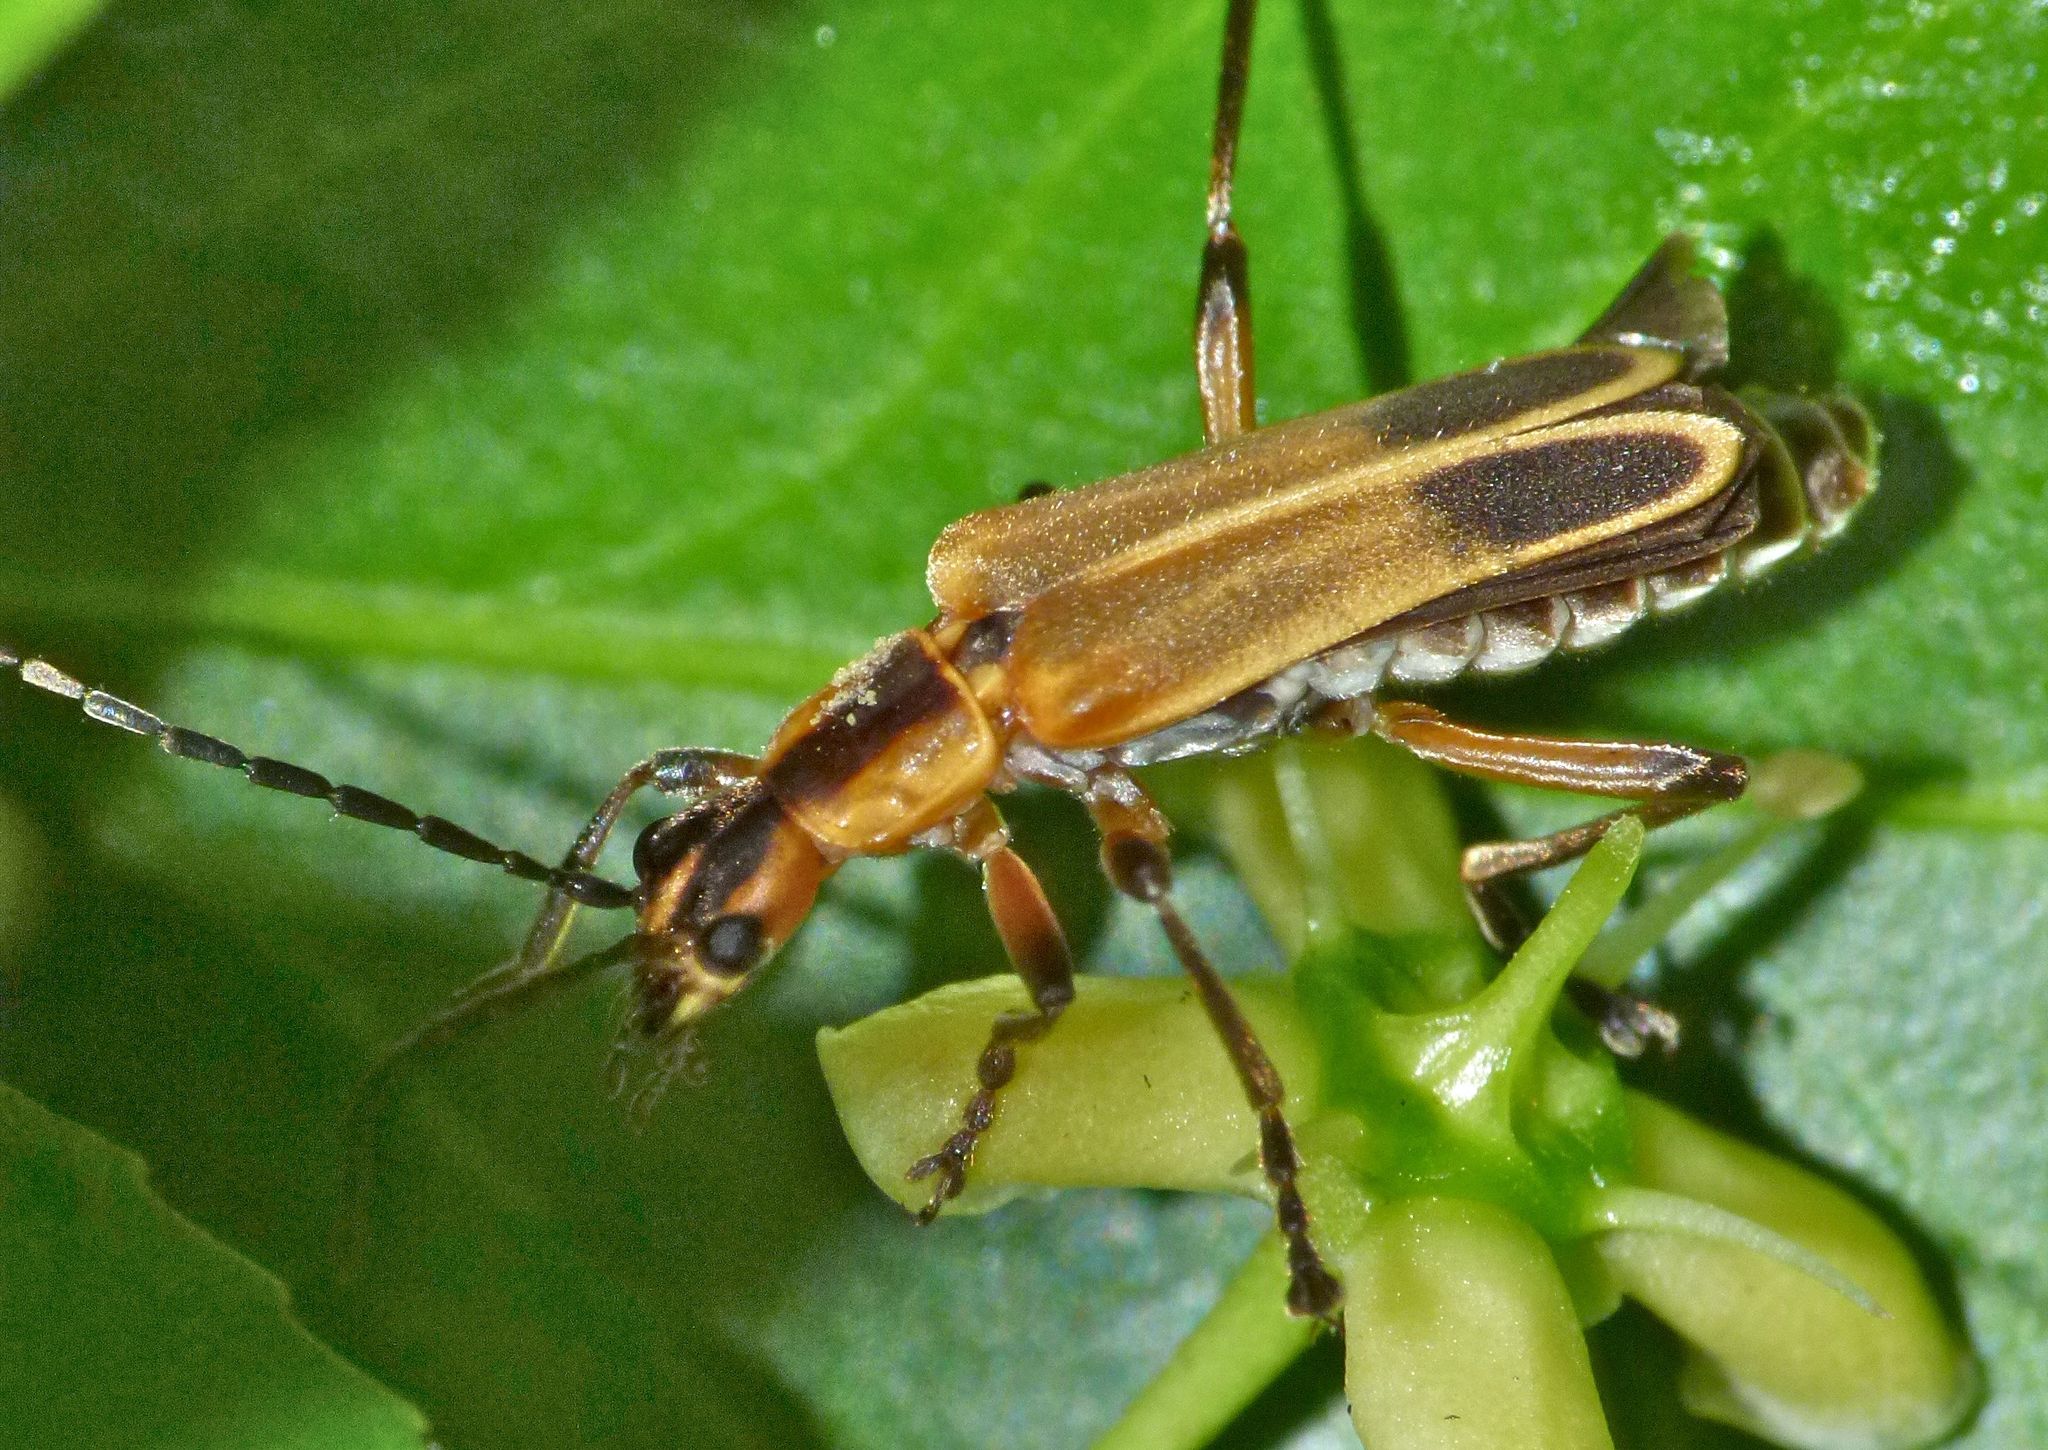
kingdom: Animalia
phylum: Arthropoda
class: Insecta
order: Coleoptera
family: Cantharidae
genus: Chauliognathus
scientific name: Chauliognathus marginatus
